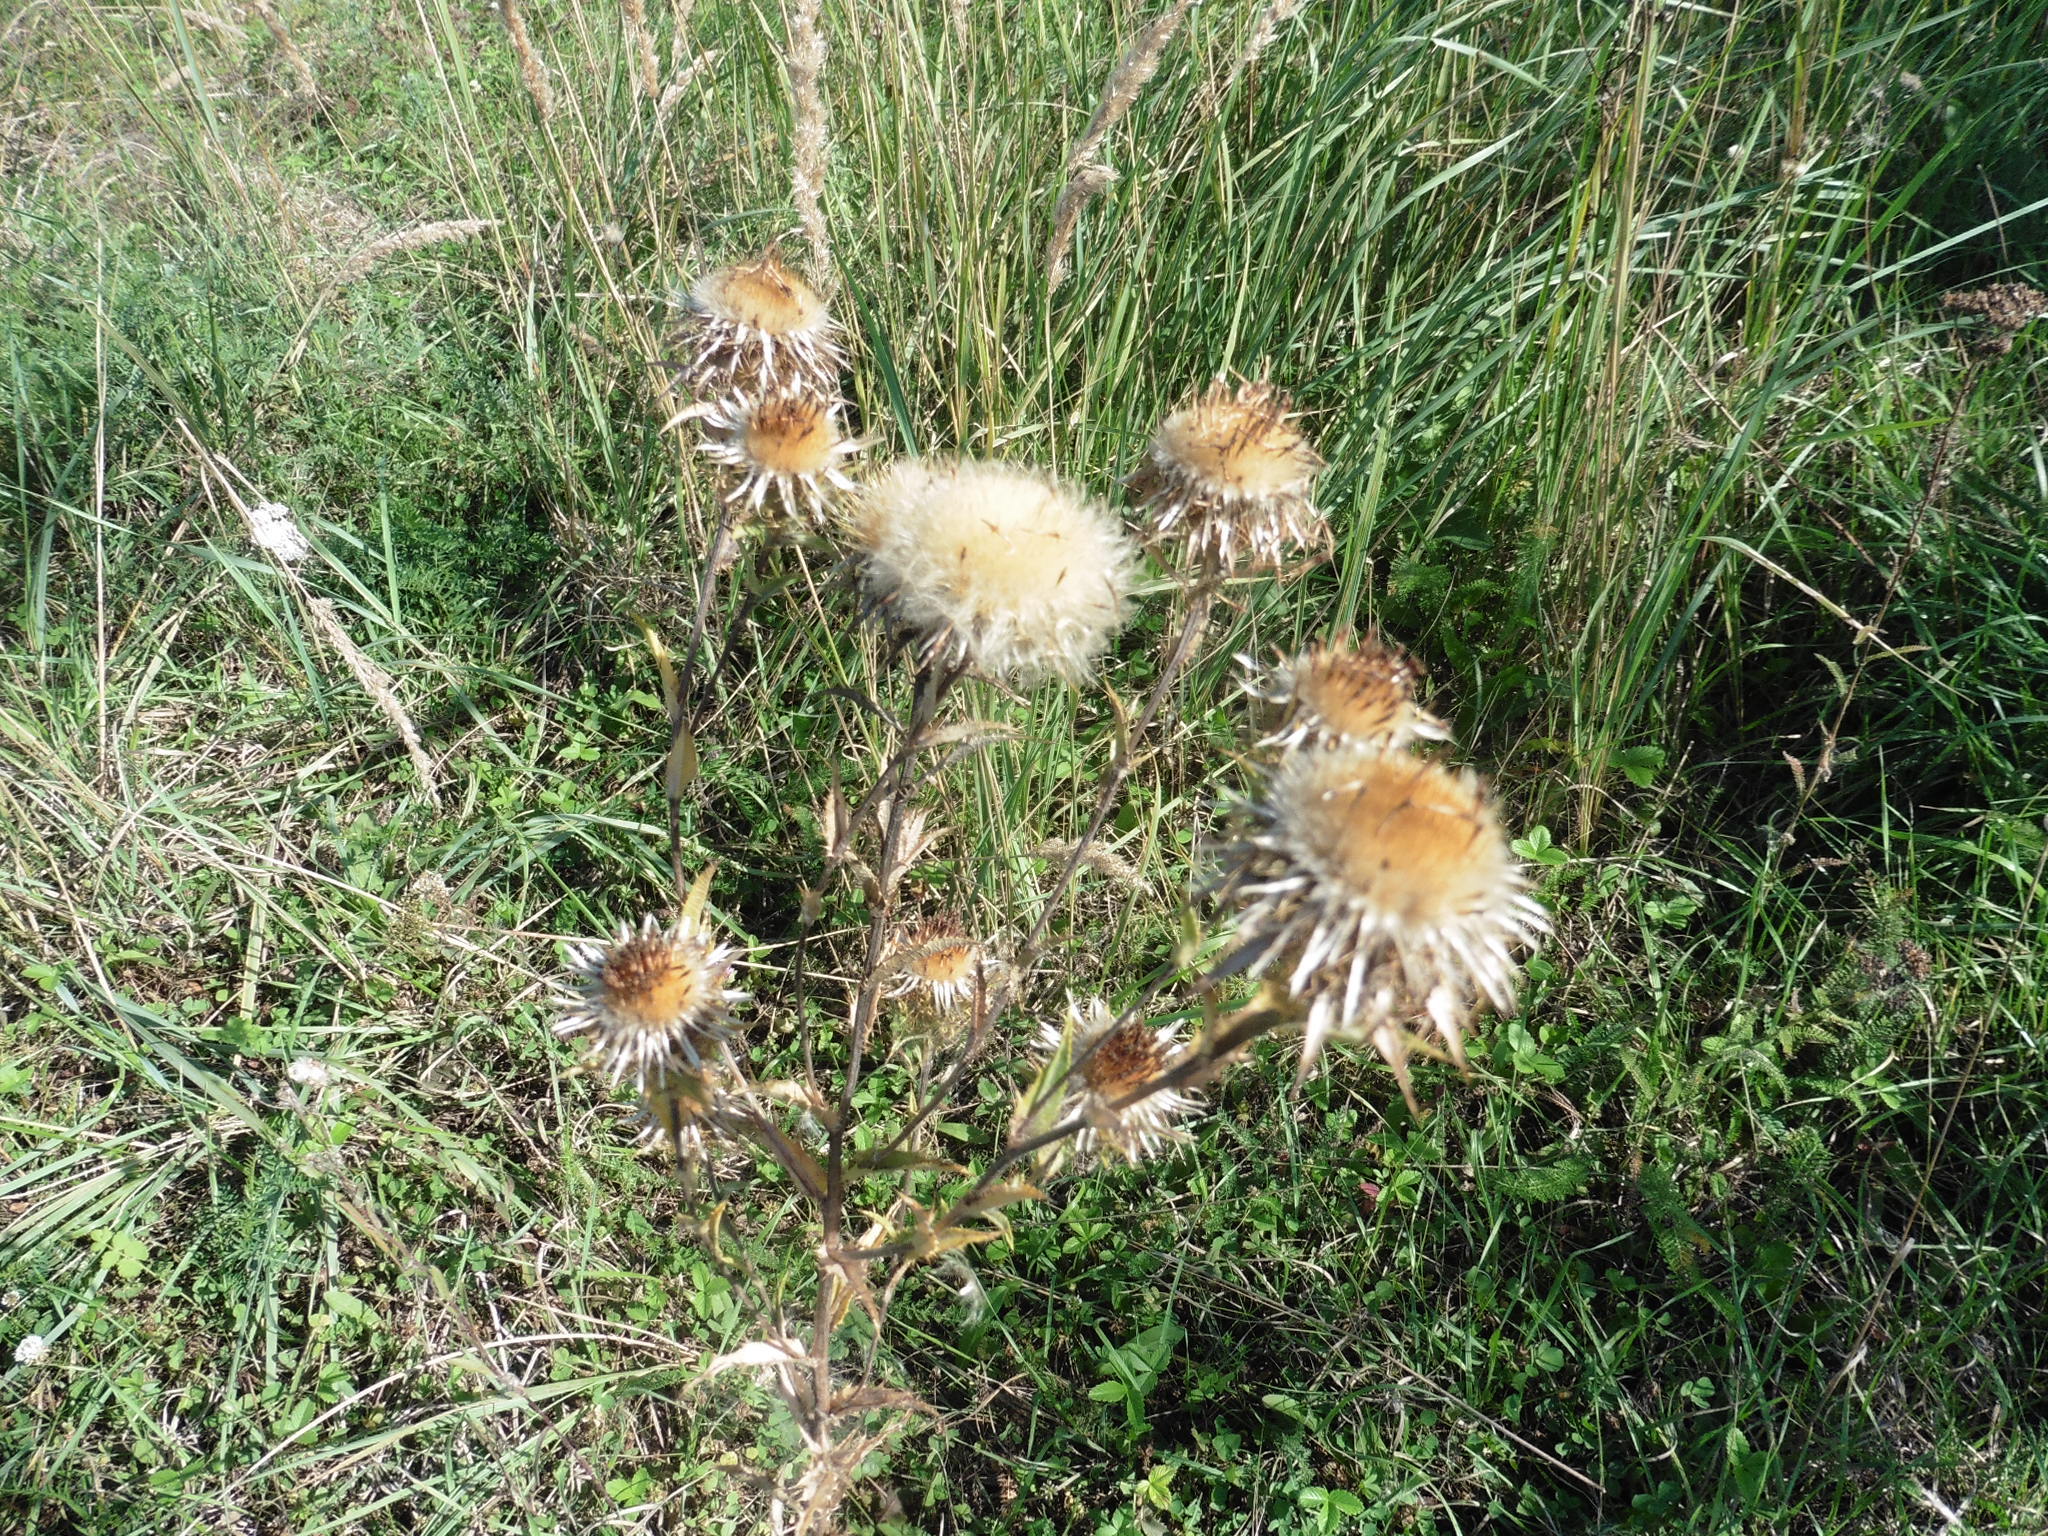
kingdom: Plantae
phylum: Tracheophyta
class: Magnoliopsida
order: Asterales
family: Asteraceae
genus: Carlina
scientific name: Carlina biebersteinii
